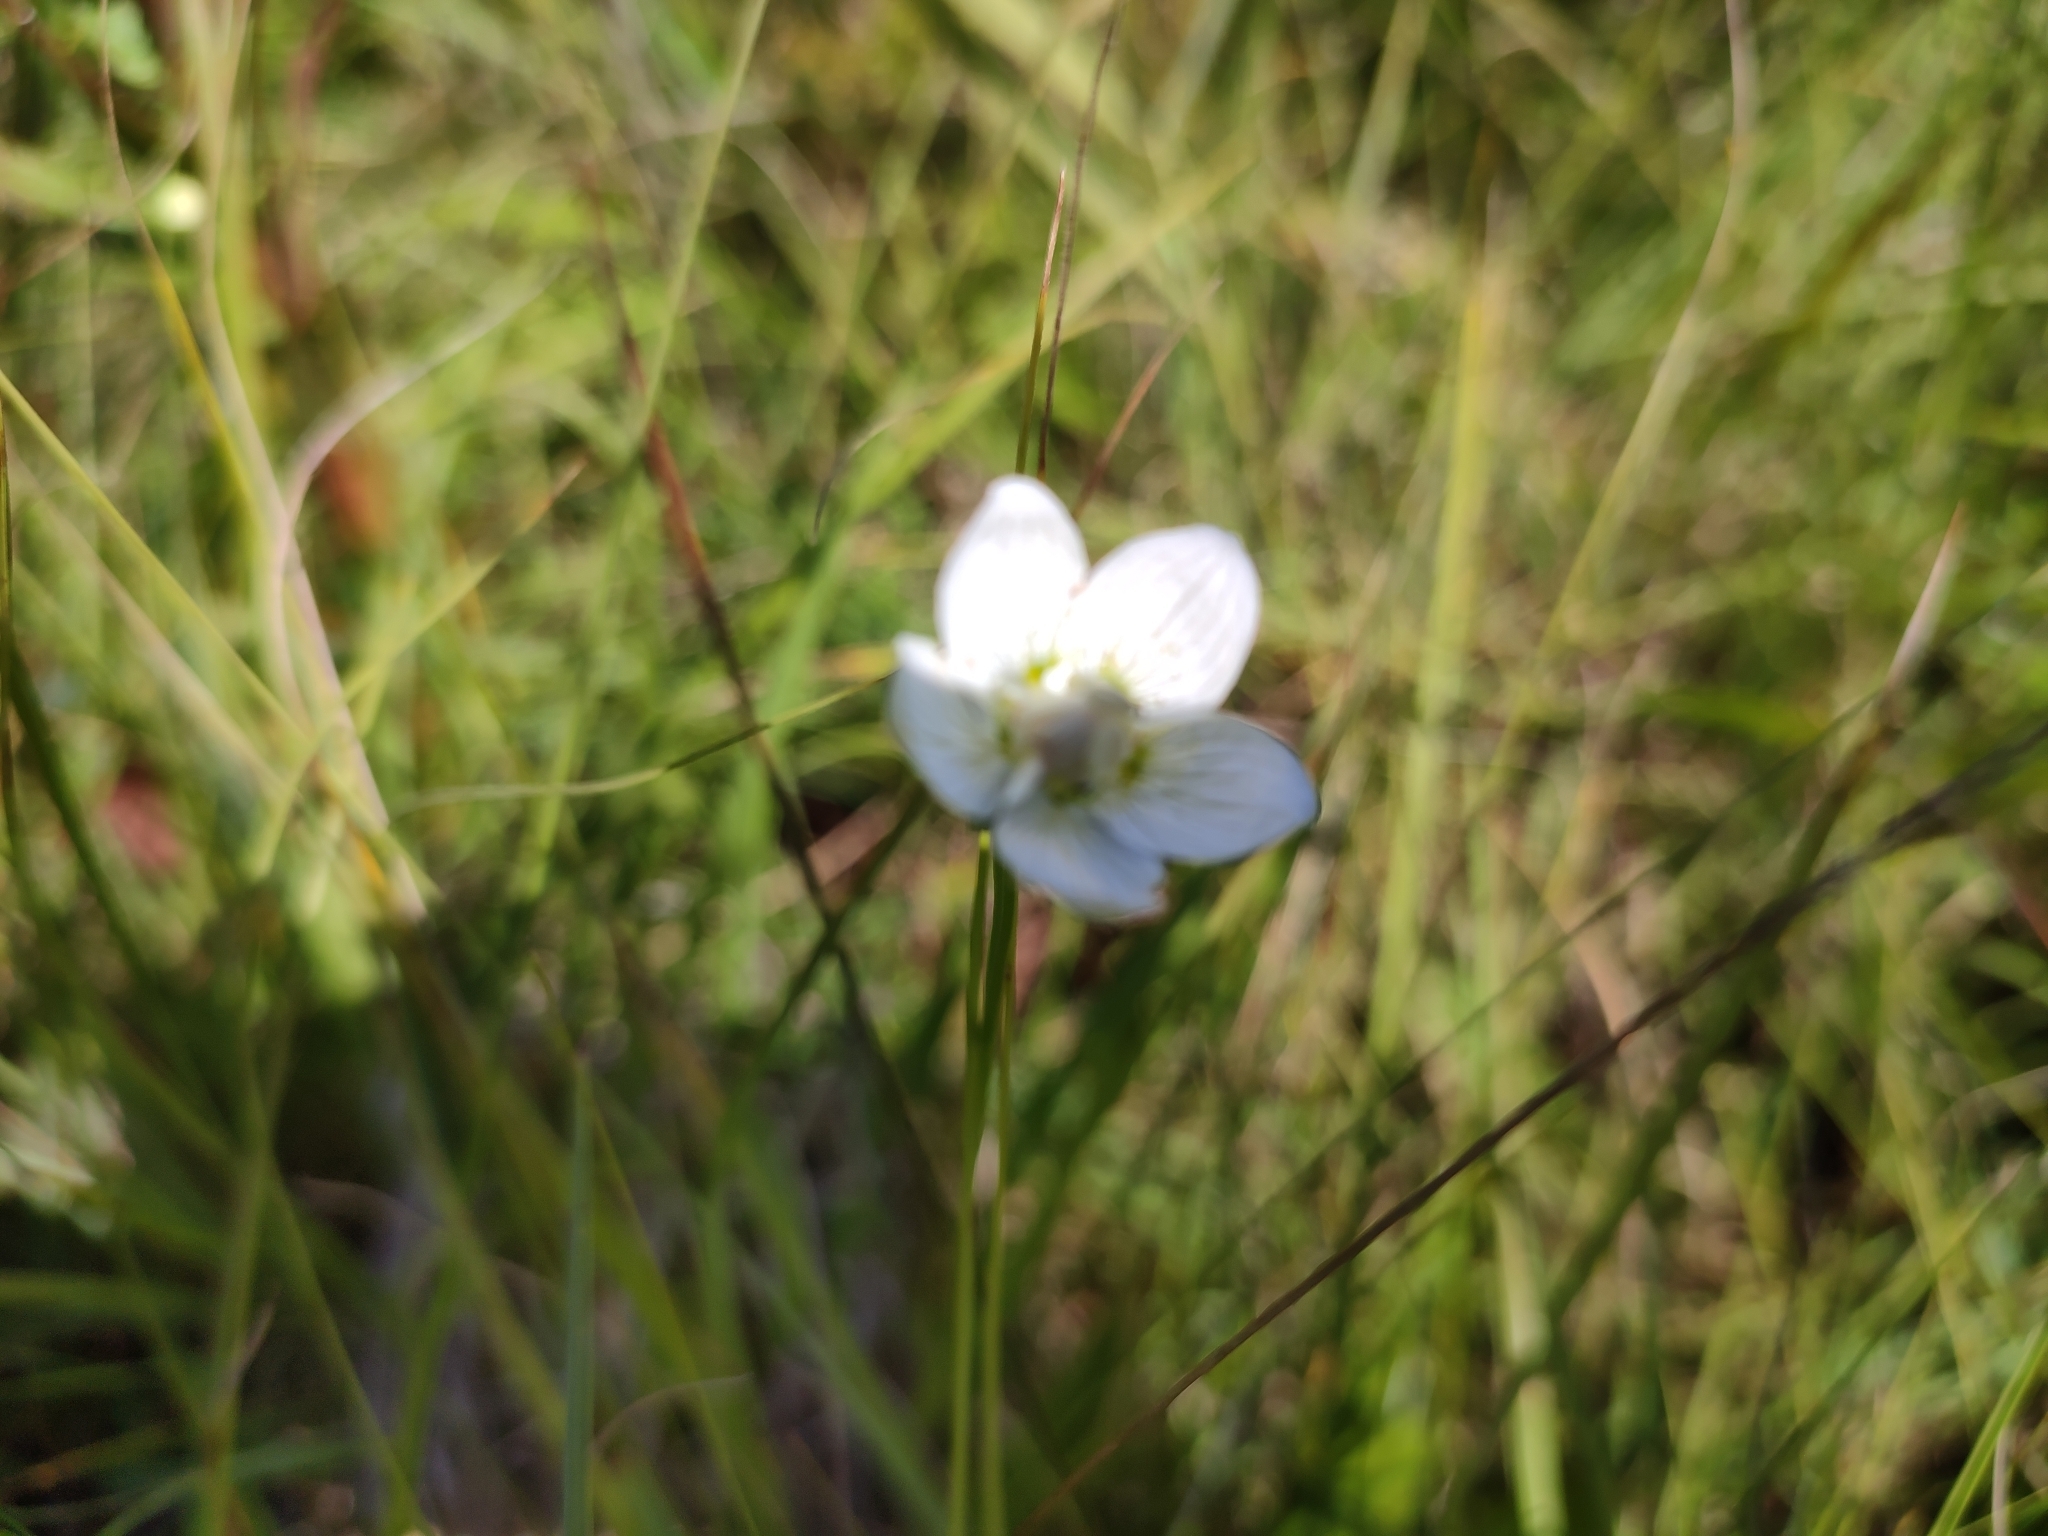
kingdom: Plantae
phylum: Tracheophyta
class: Magnoliopsida
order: Celastrales
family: Parnassiaceae
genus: Parnassia
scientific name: Parnassia palustris
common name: Grass-of-parnassus
